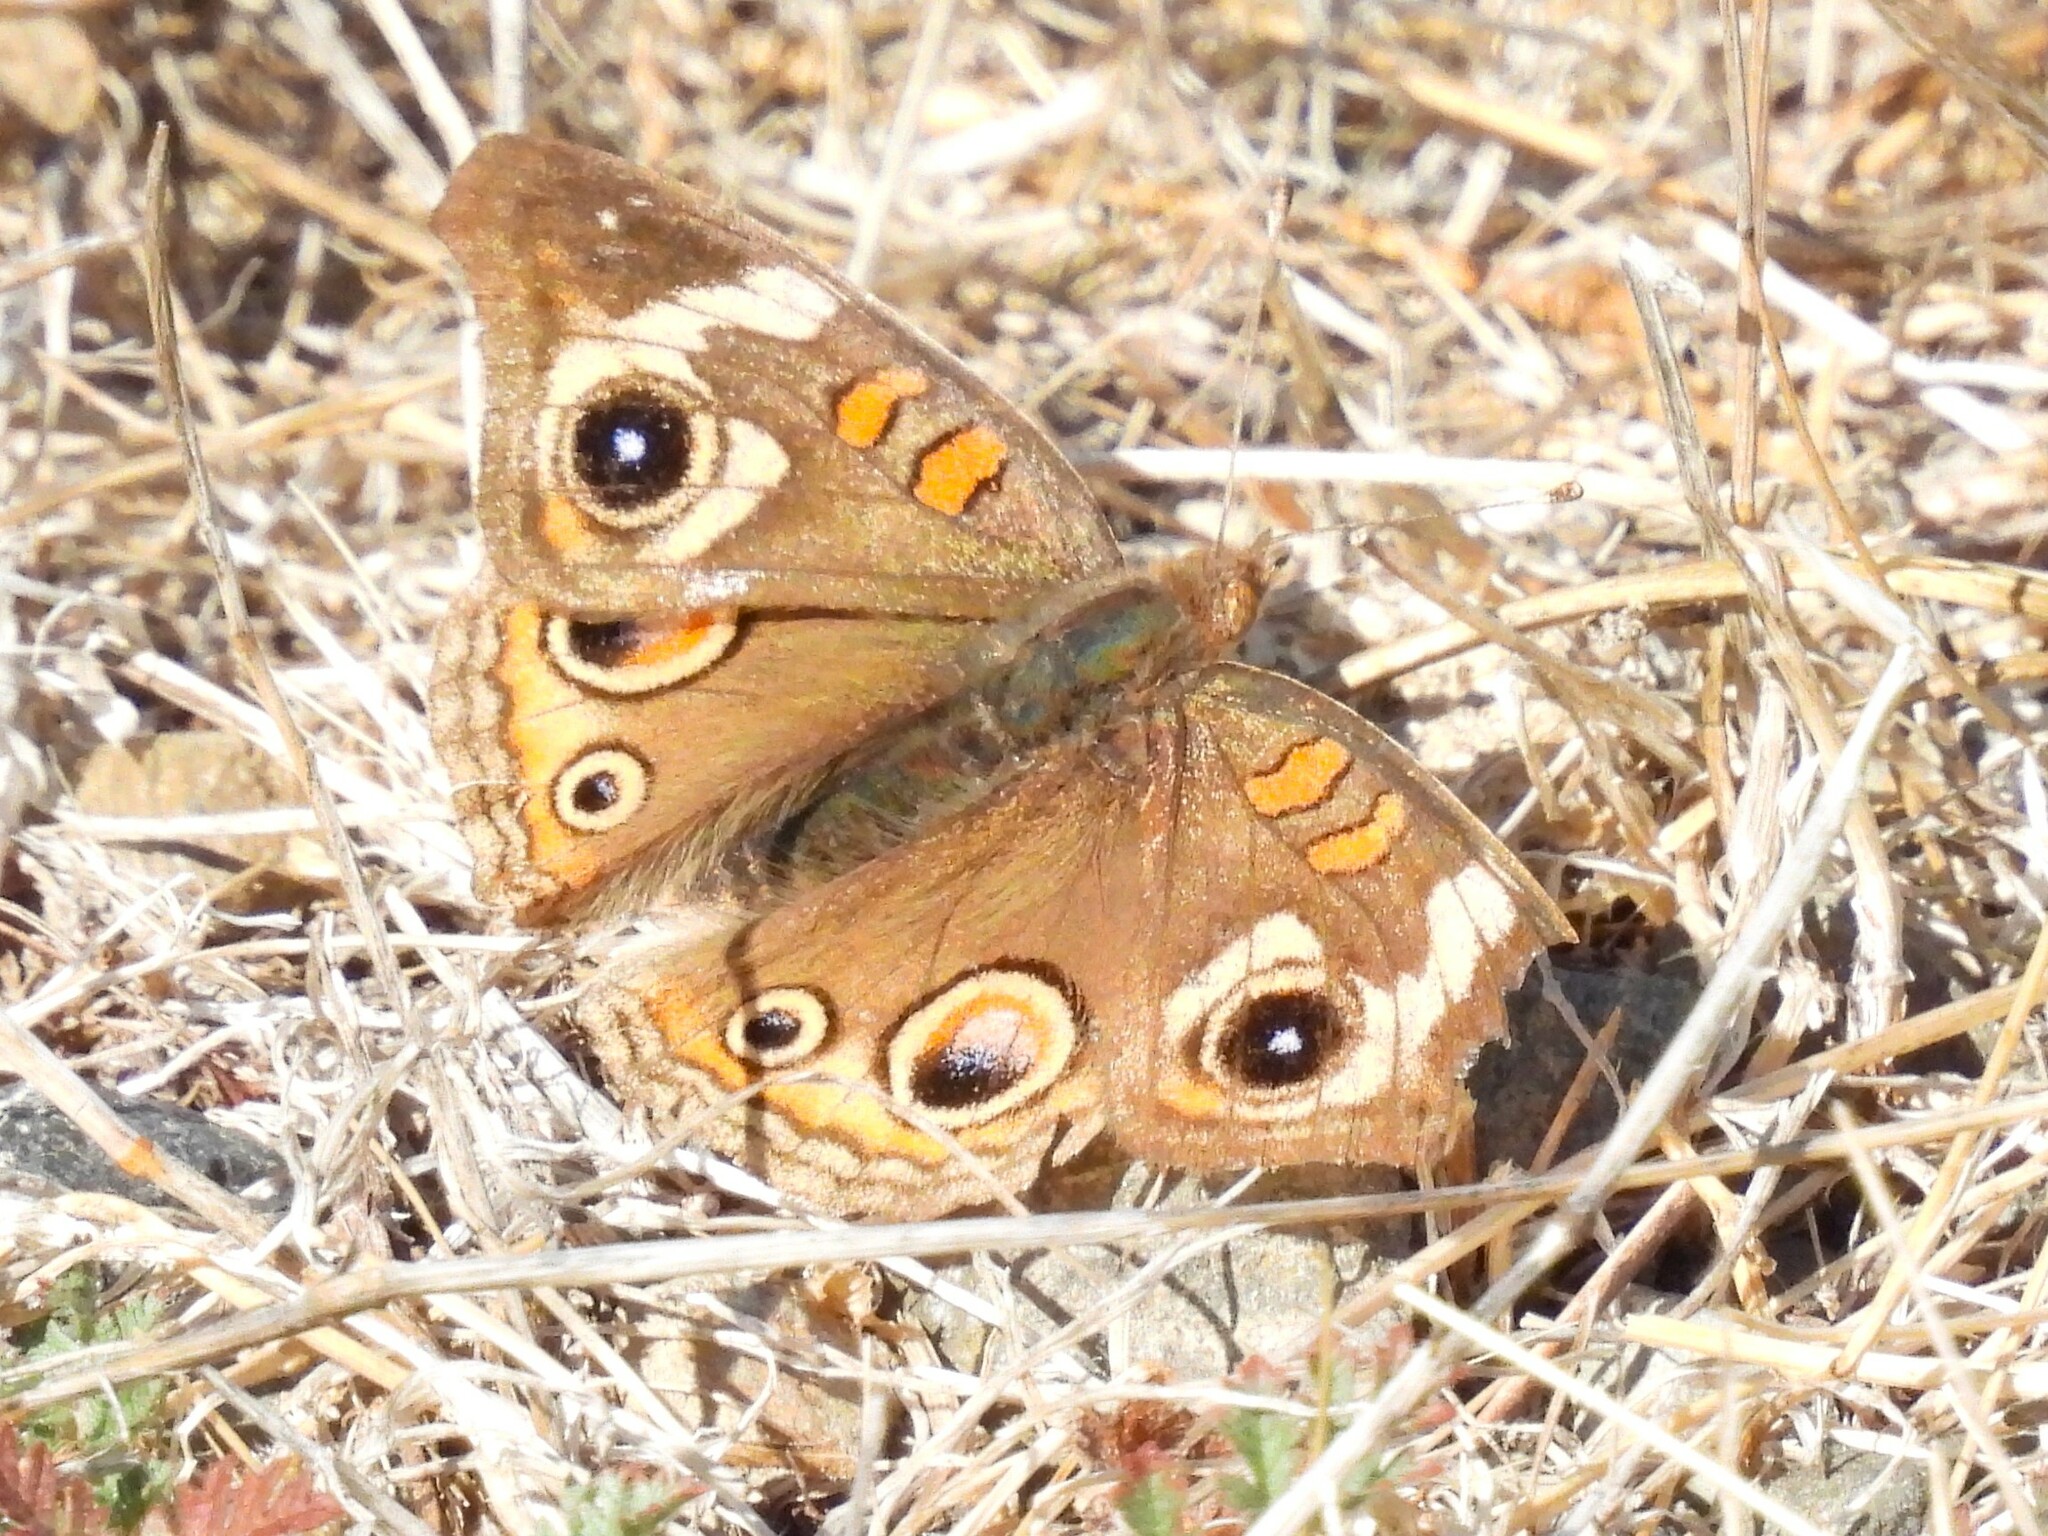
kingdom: Animalia
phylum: Arthropoda
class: Insecta
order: Lepidoptera
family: Nymphalidae
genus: Junonia
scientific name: Junonia grisea
